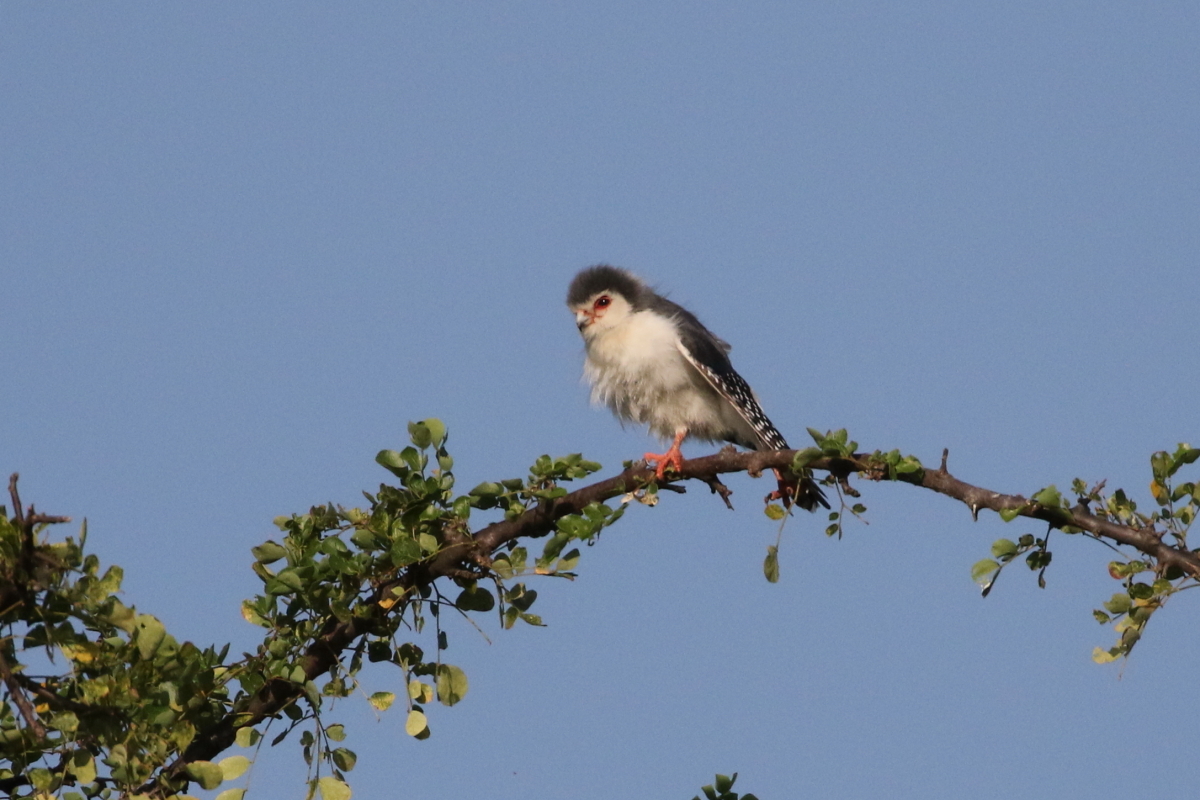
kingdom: Animalia
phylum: Chordata
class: Aves
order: Falconiformes
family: Falconidae
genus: Polihierax
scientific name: Polihierax semitorquatus
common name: Pygmy falcon
